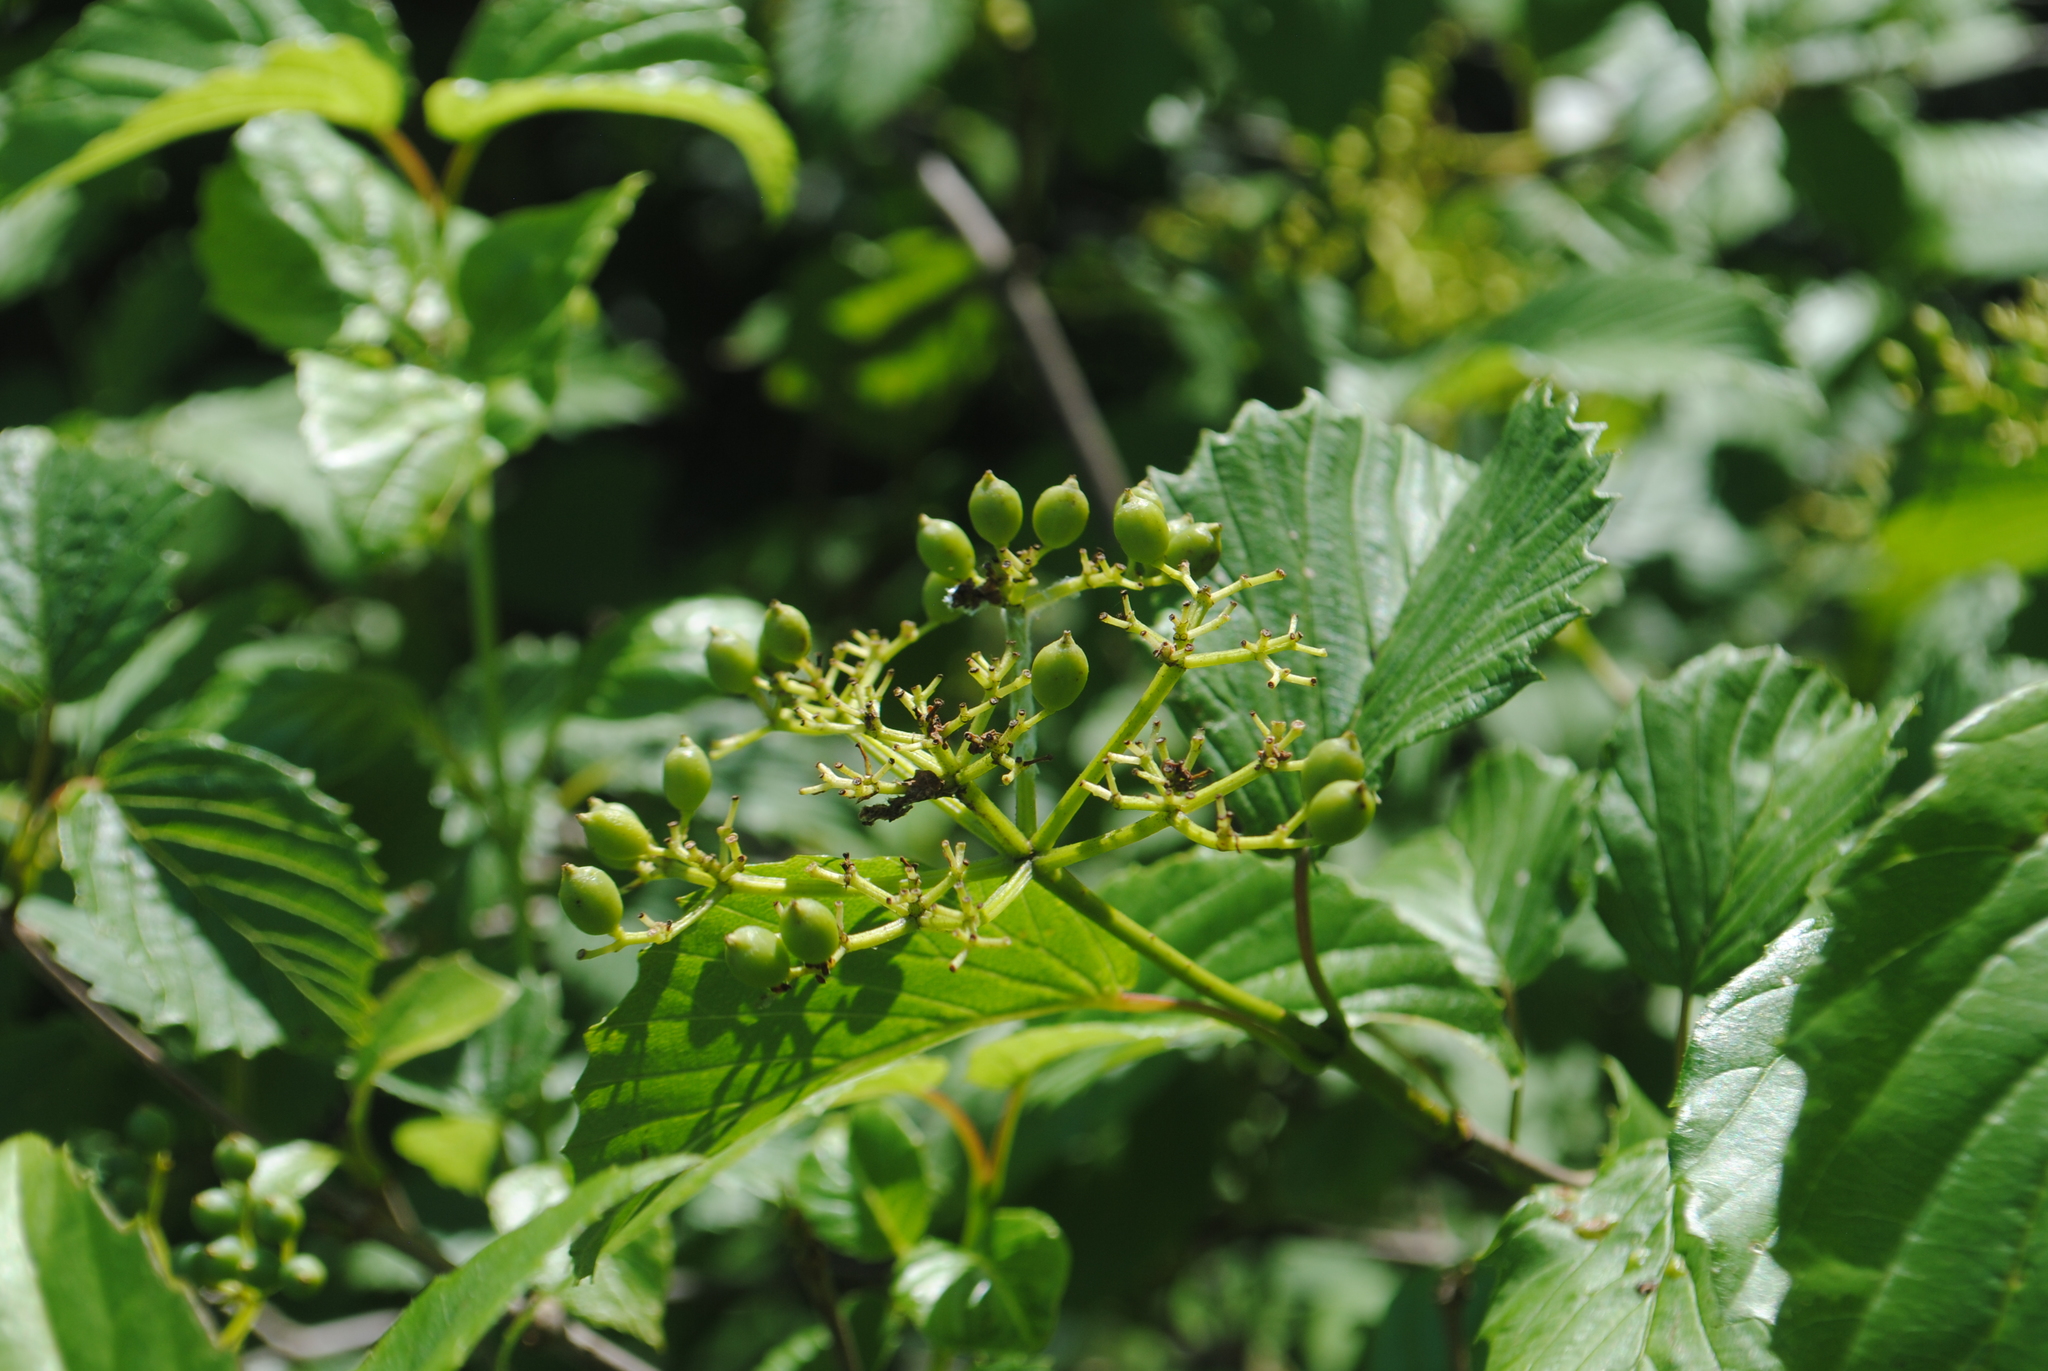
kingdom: Plantae
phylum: Tracheophyta
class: Magnoliopsida
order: Dipsacales
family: Viburnaceae
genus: Viburnum
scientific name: Viburnum recognitum
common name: Northern arrow-wood
